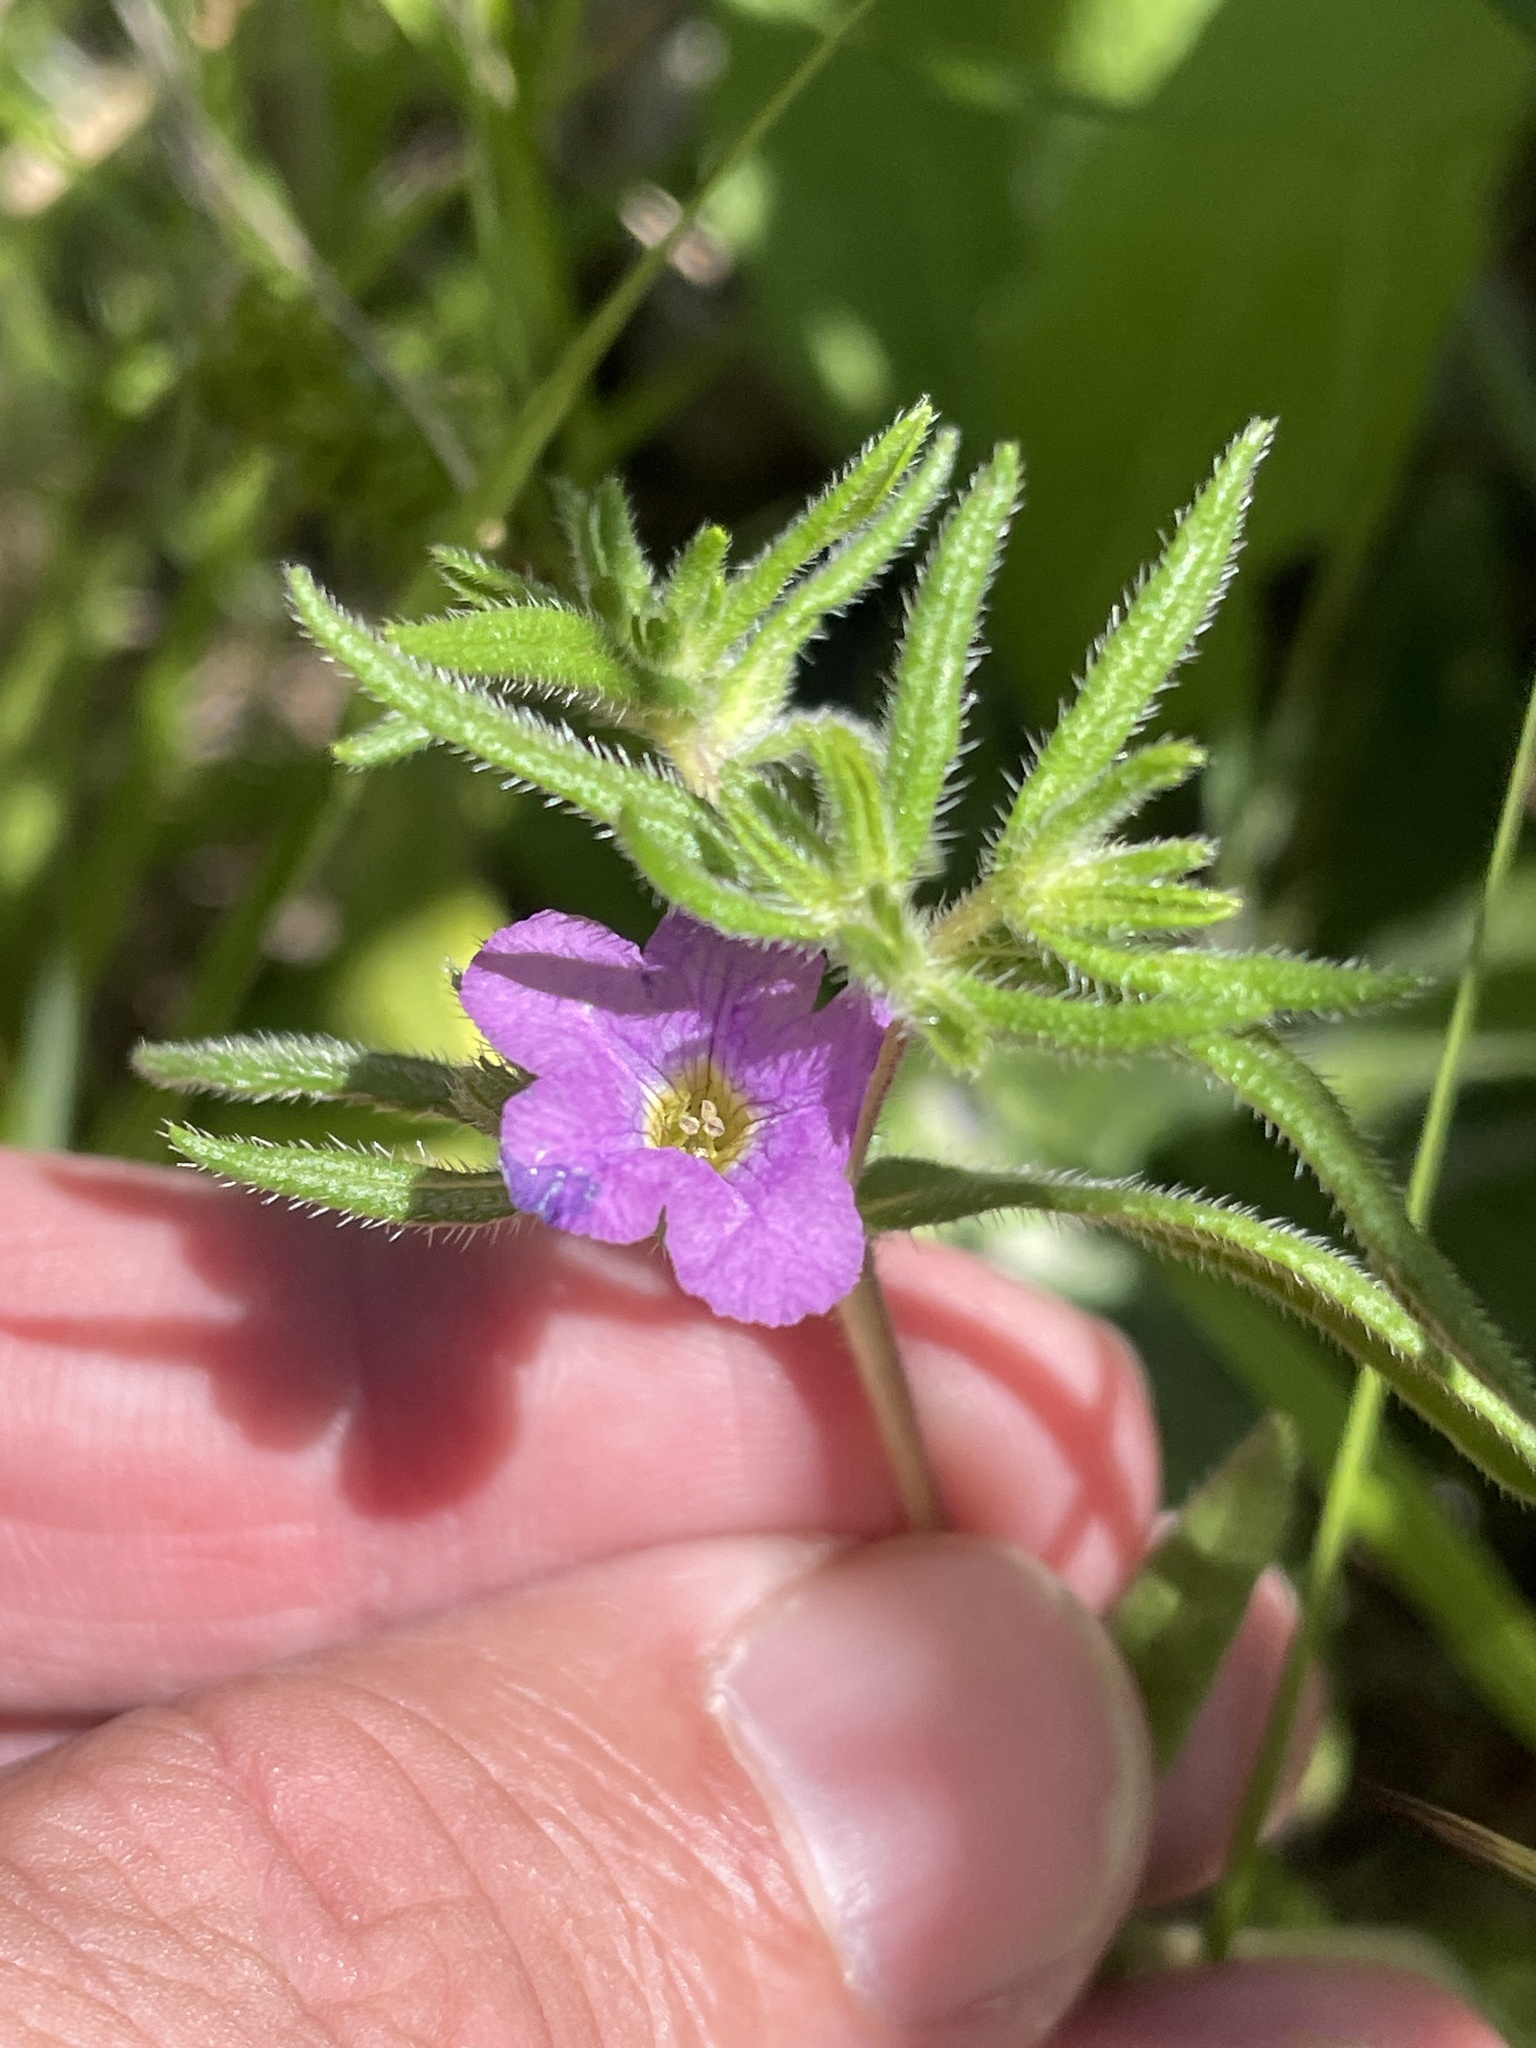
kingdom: Plantae
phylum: Tracheophyta
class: Magnoliopsida
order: Boraginales
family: Namaceae
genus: Nama
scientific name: Nama hispida
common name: Bristly nama
